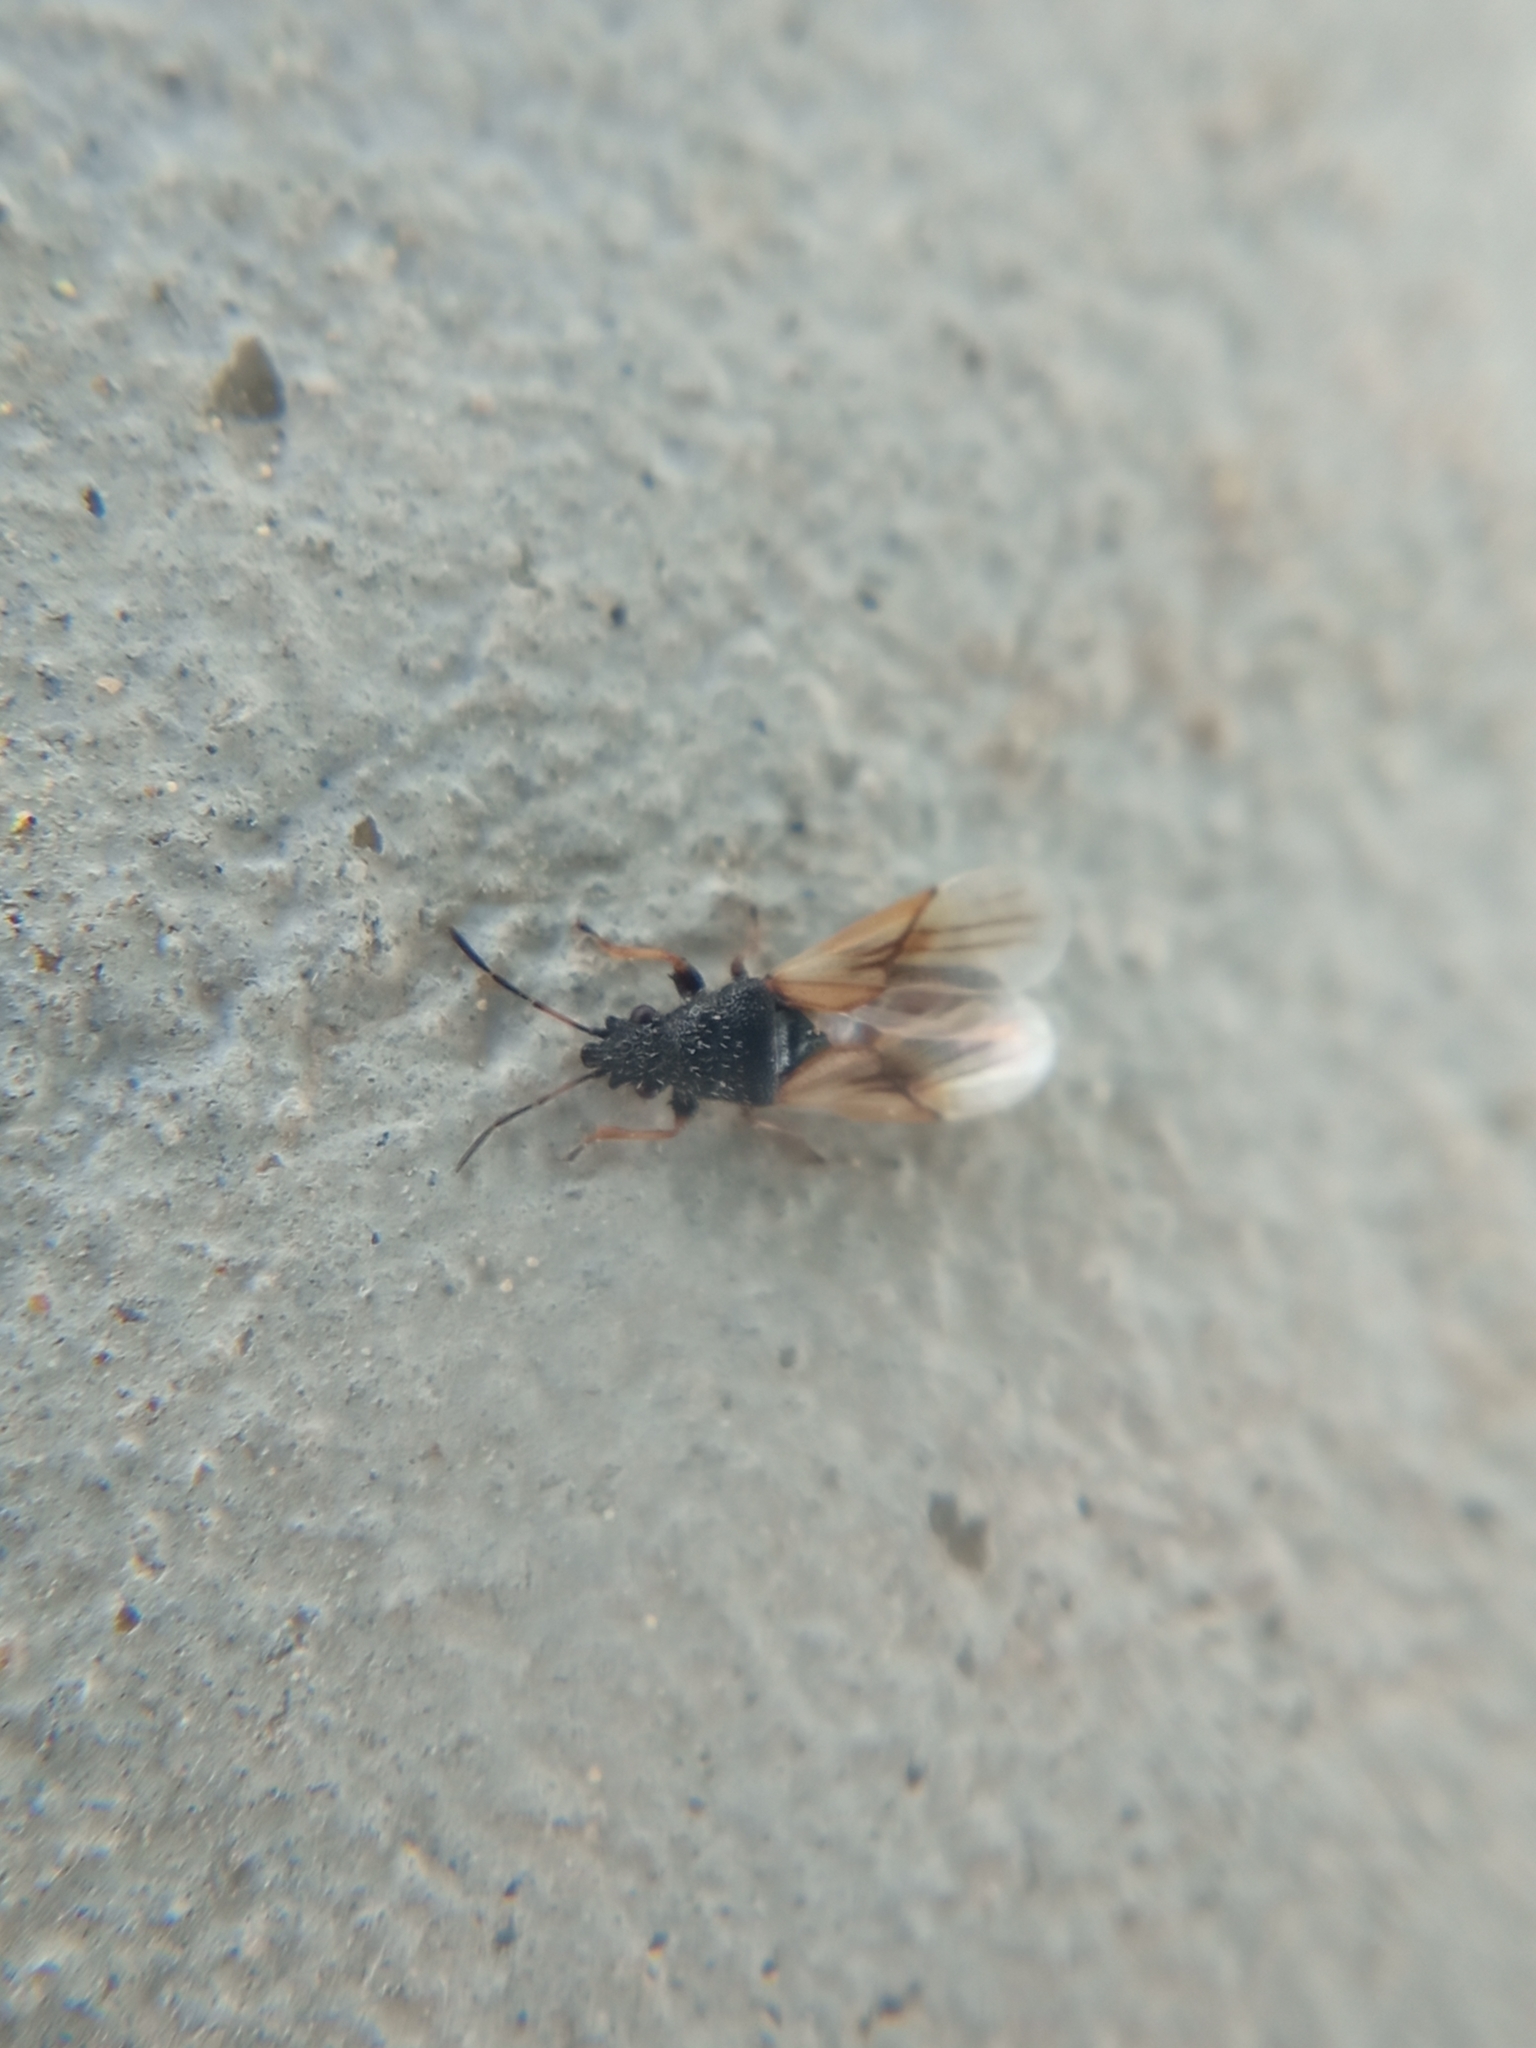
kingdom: Animalia
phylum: Arthropoda
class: Insecta
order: Hemiptera
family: Oxycarenidae
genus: Metopoplax
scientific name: Metopoplax ditomoides
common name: Seed bug
